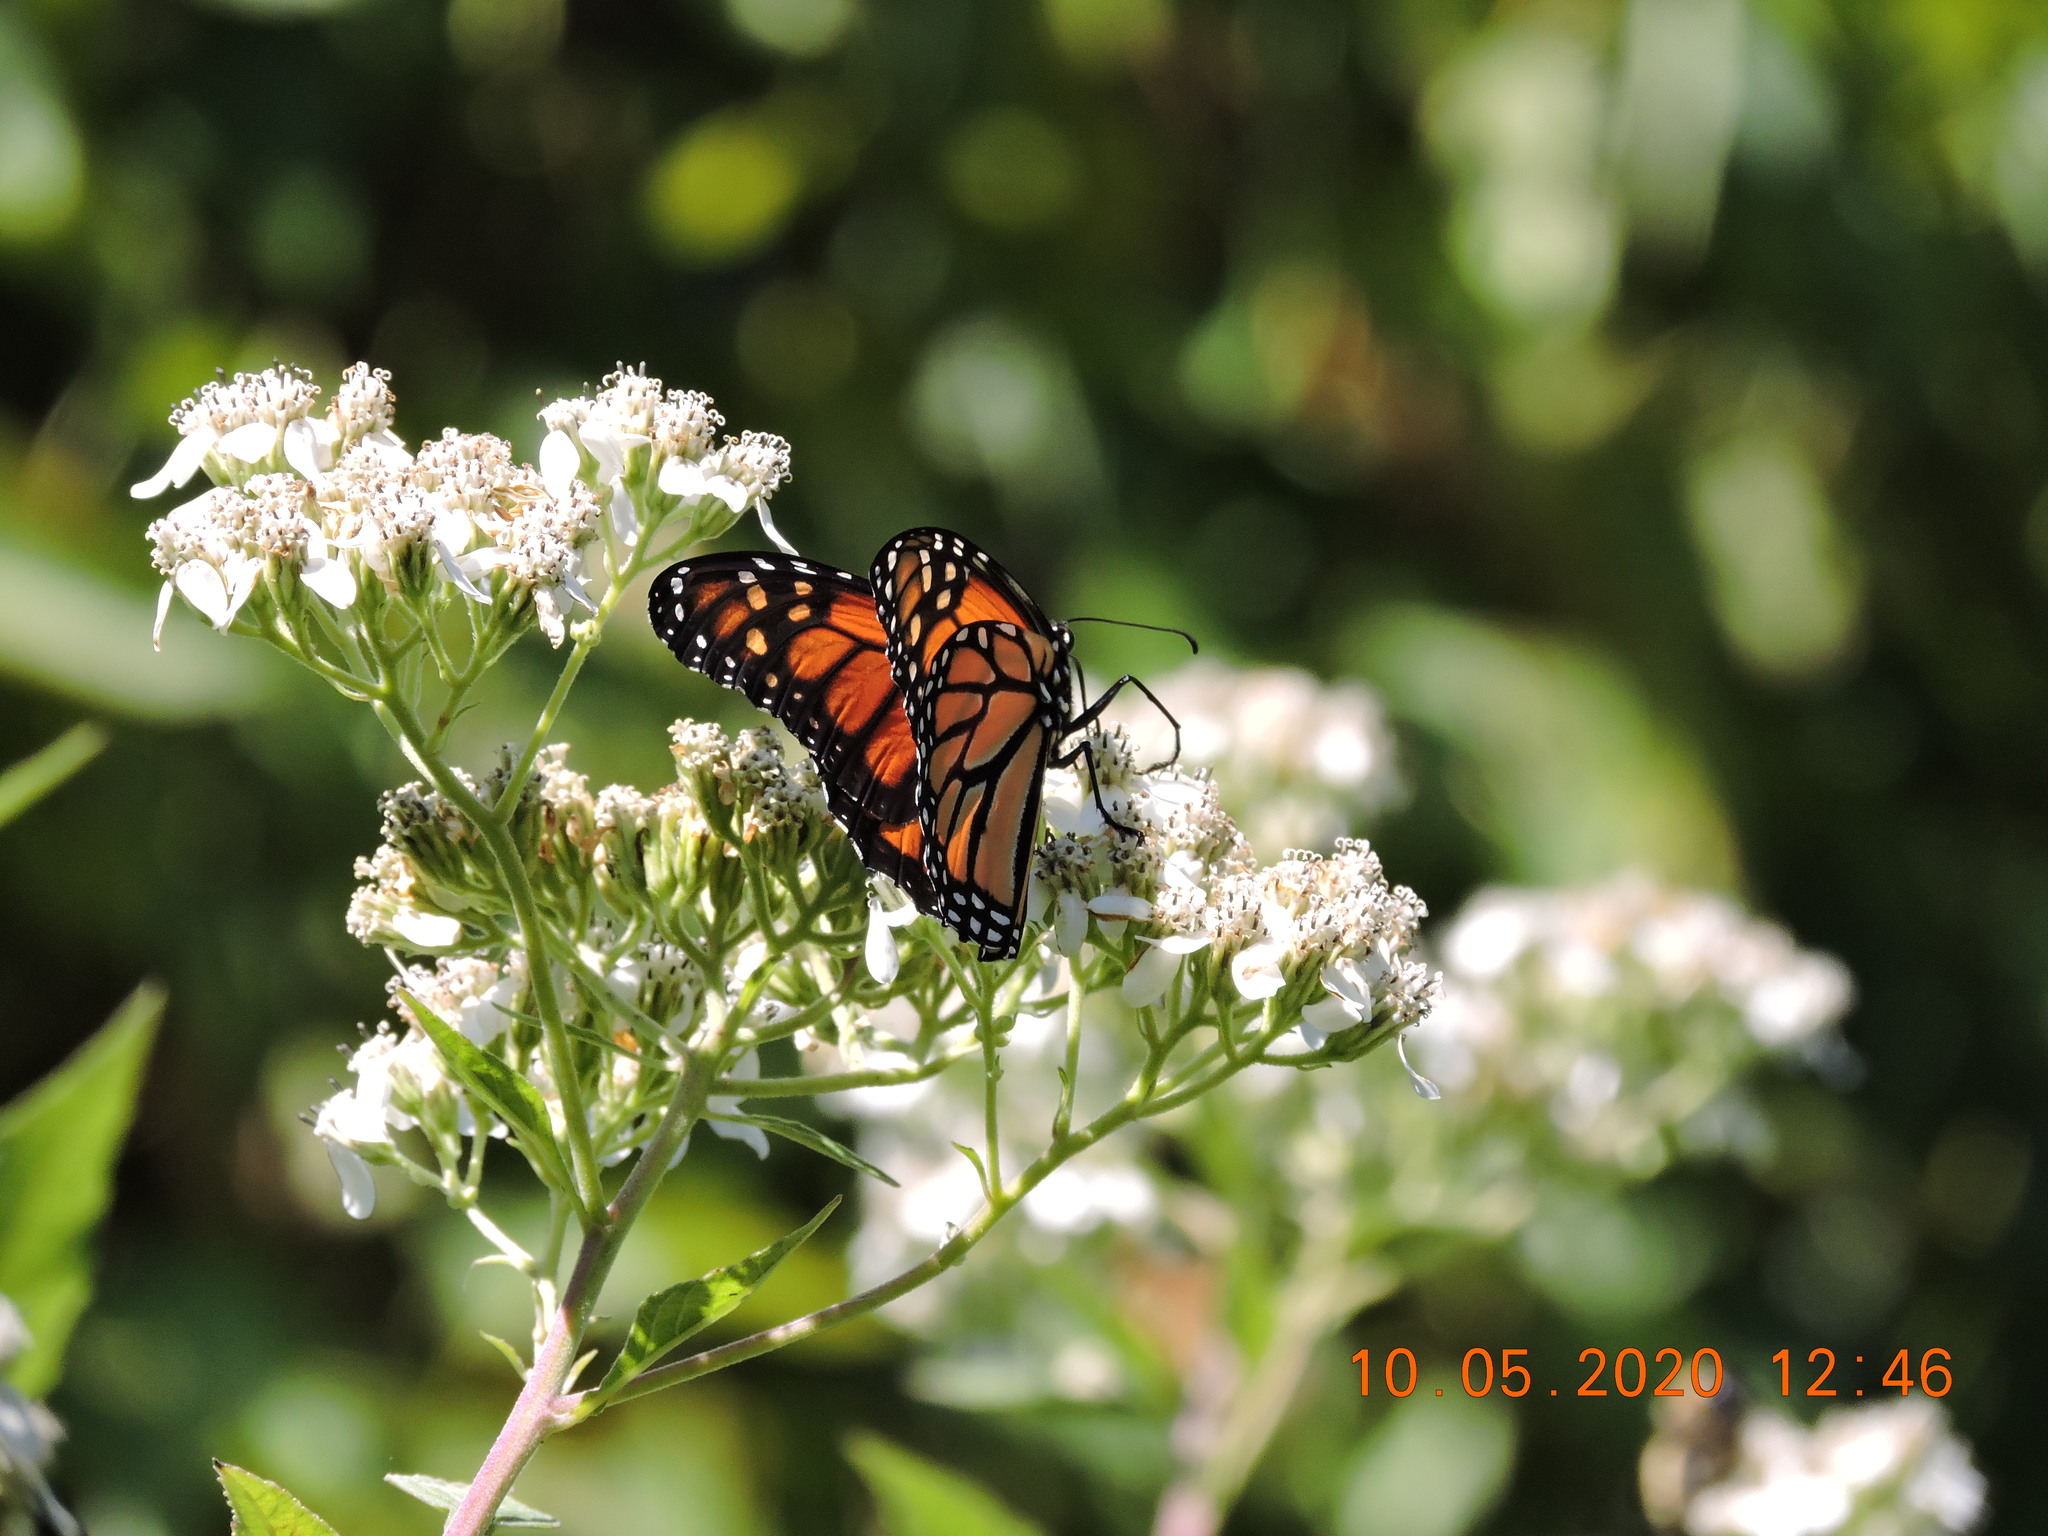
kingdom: Animalia
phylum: Arthropoda
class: Insecta
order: Lepidoptera
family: Nymphalidae
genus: Danaus
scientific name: Danaus plexippus
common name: Monarch
